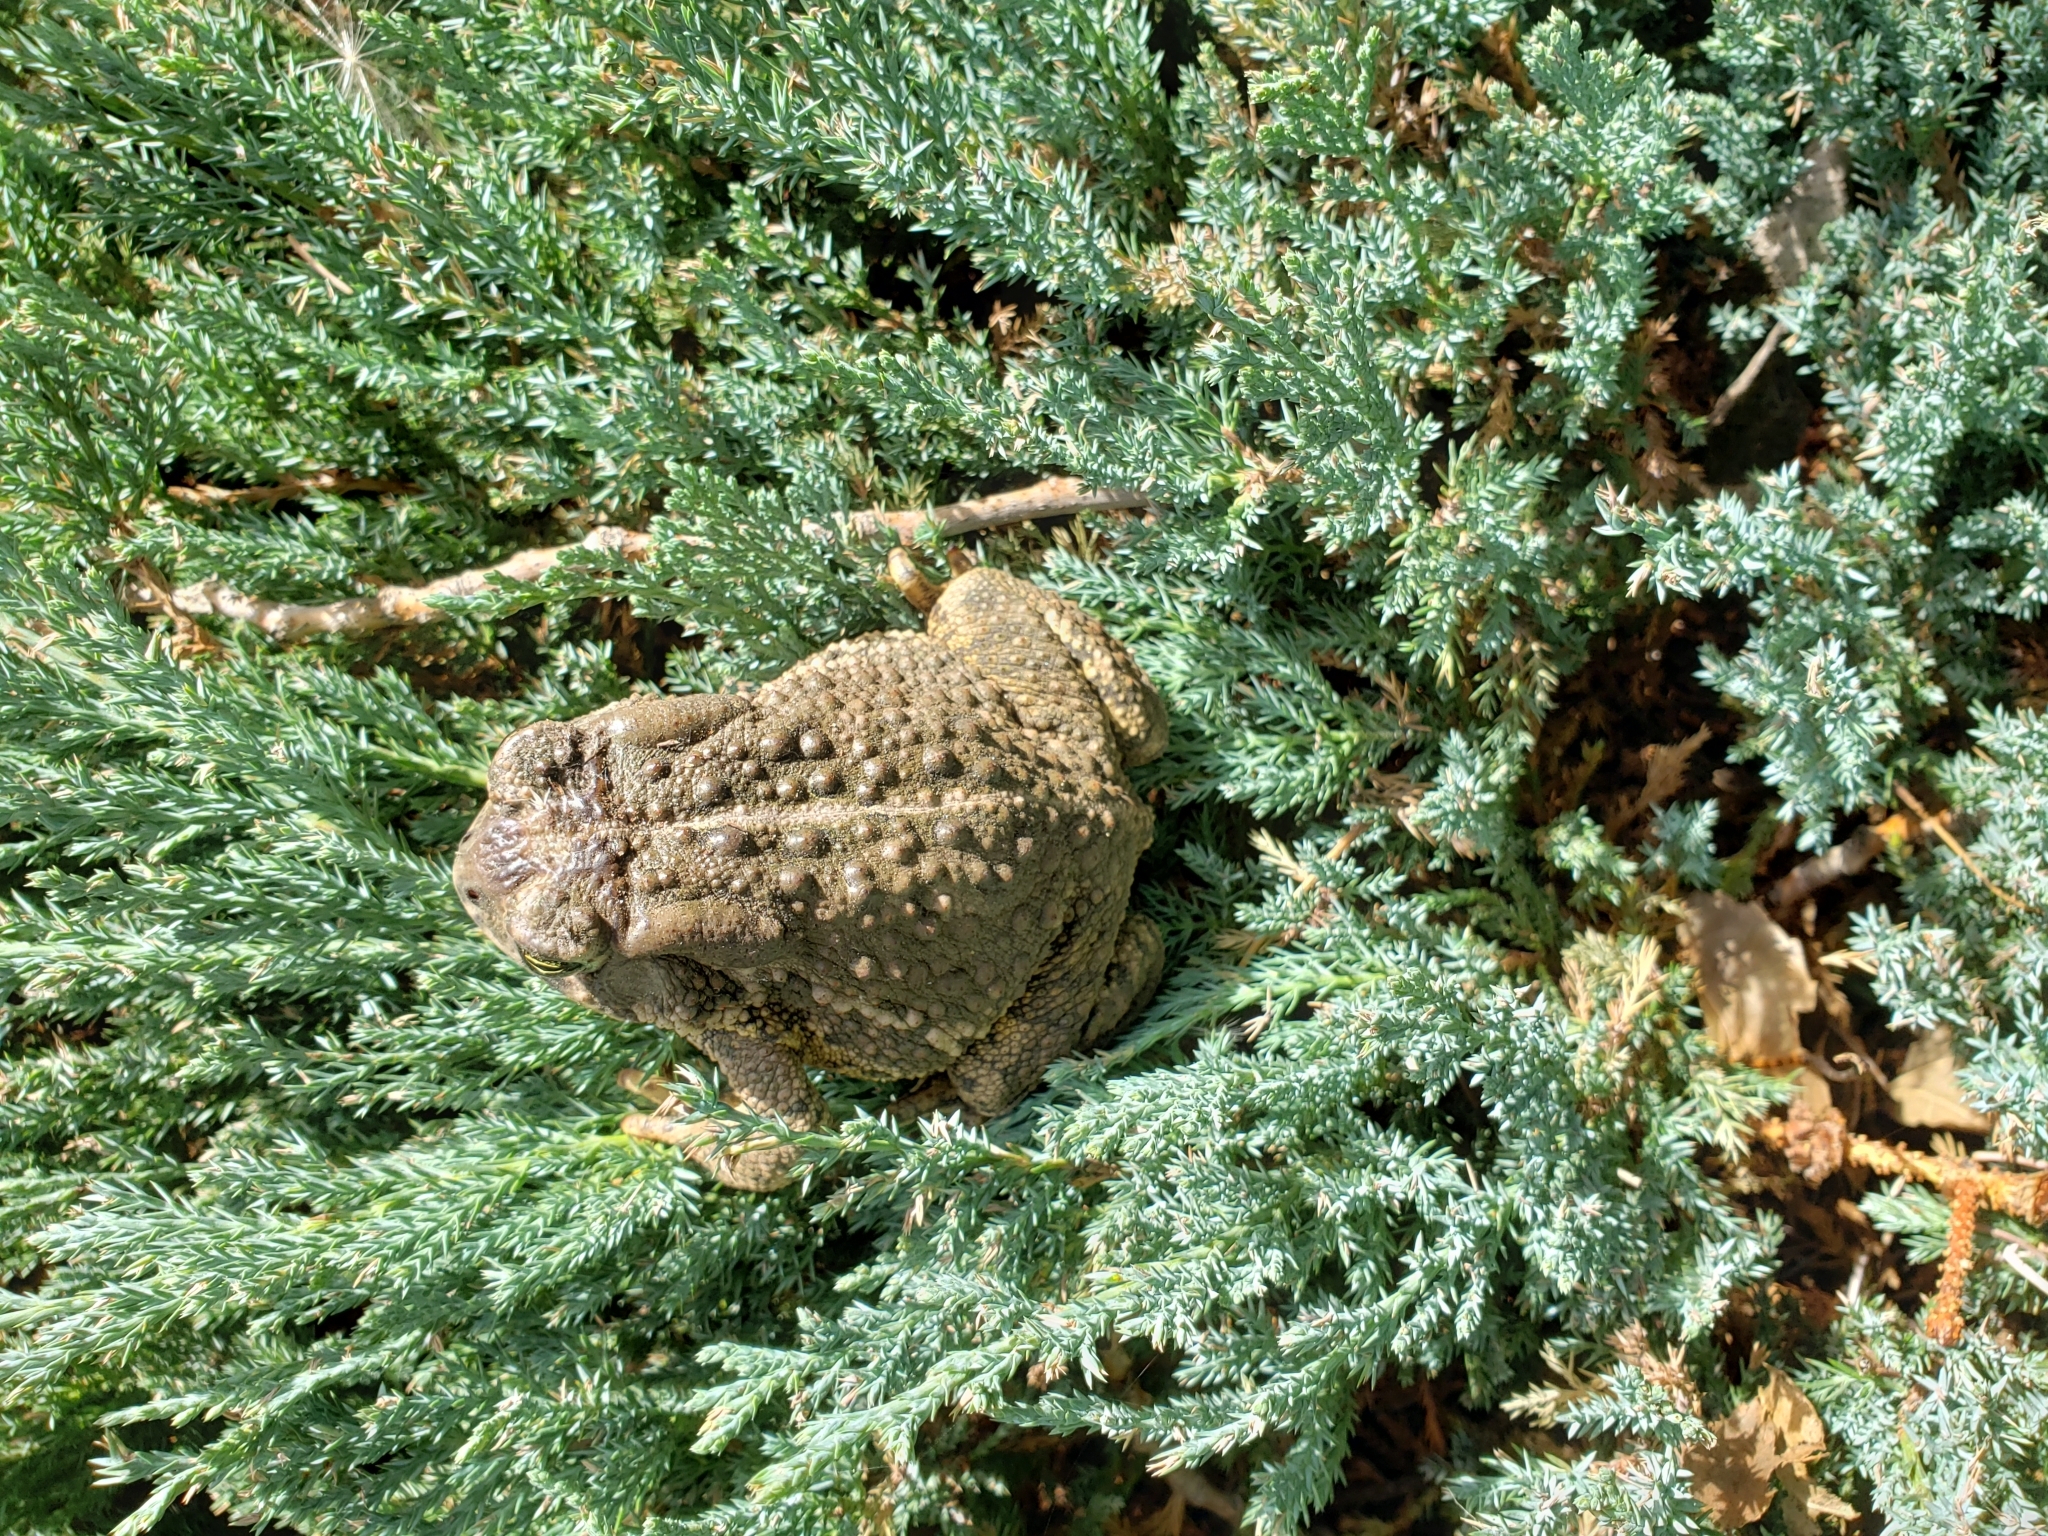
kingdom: Animalia
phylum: Chordata
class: Amphibia
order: Anura
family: Bufonidae
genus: Anaxyrus
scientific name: Anaxyrus woodhousii
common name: Woodhouse's toad
